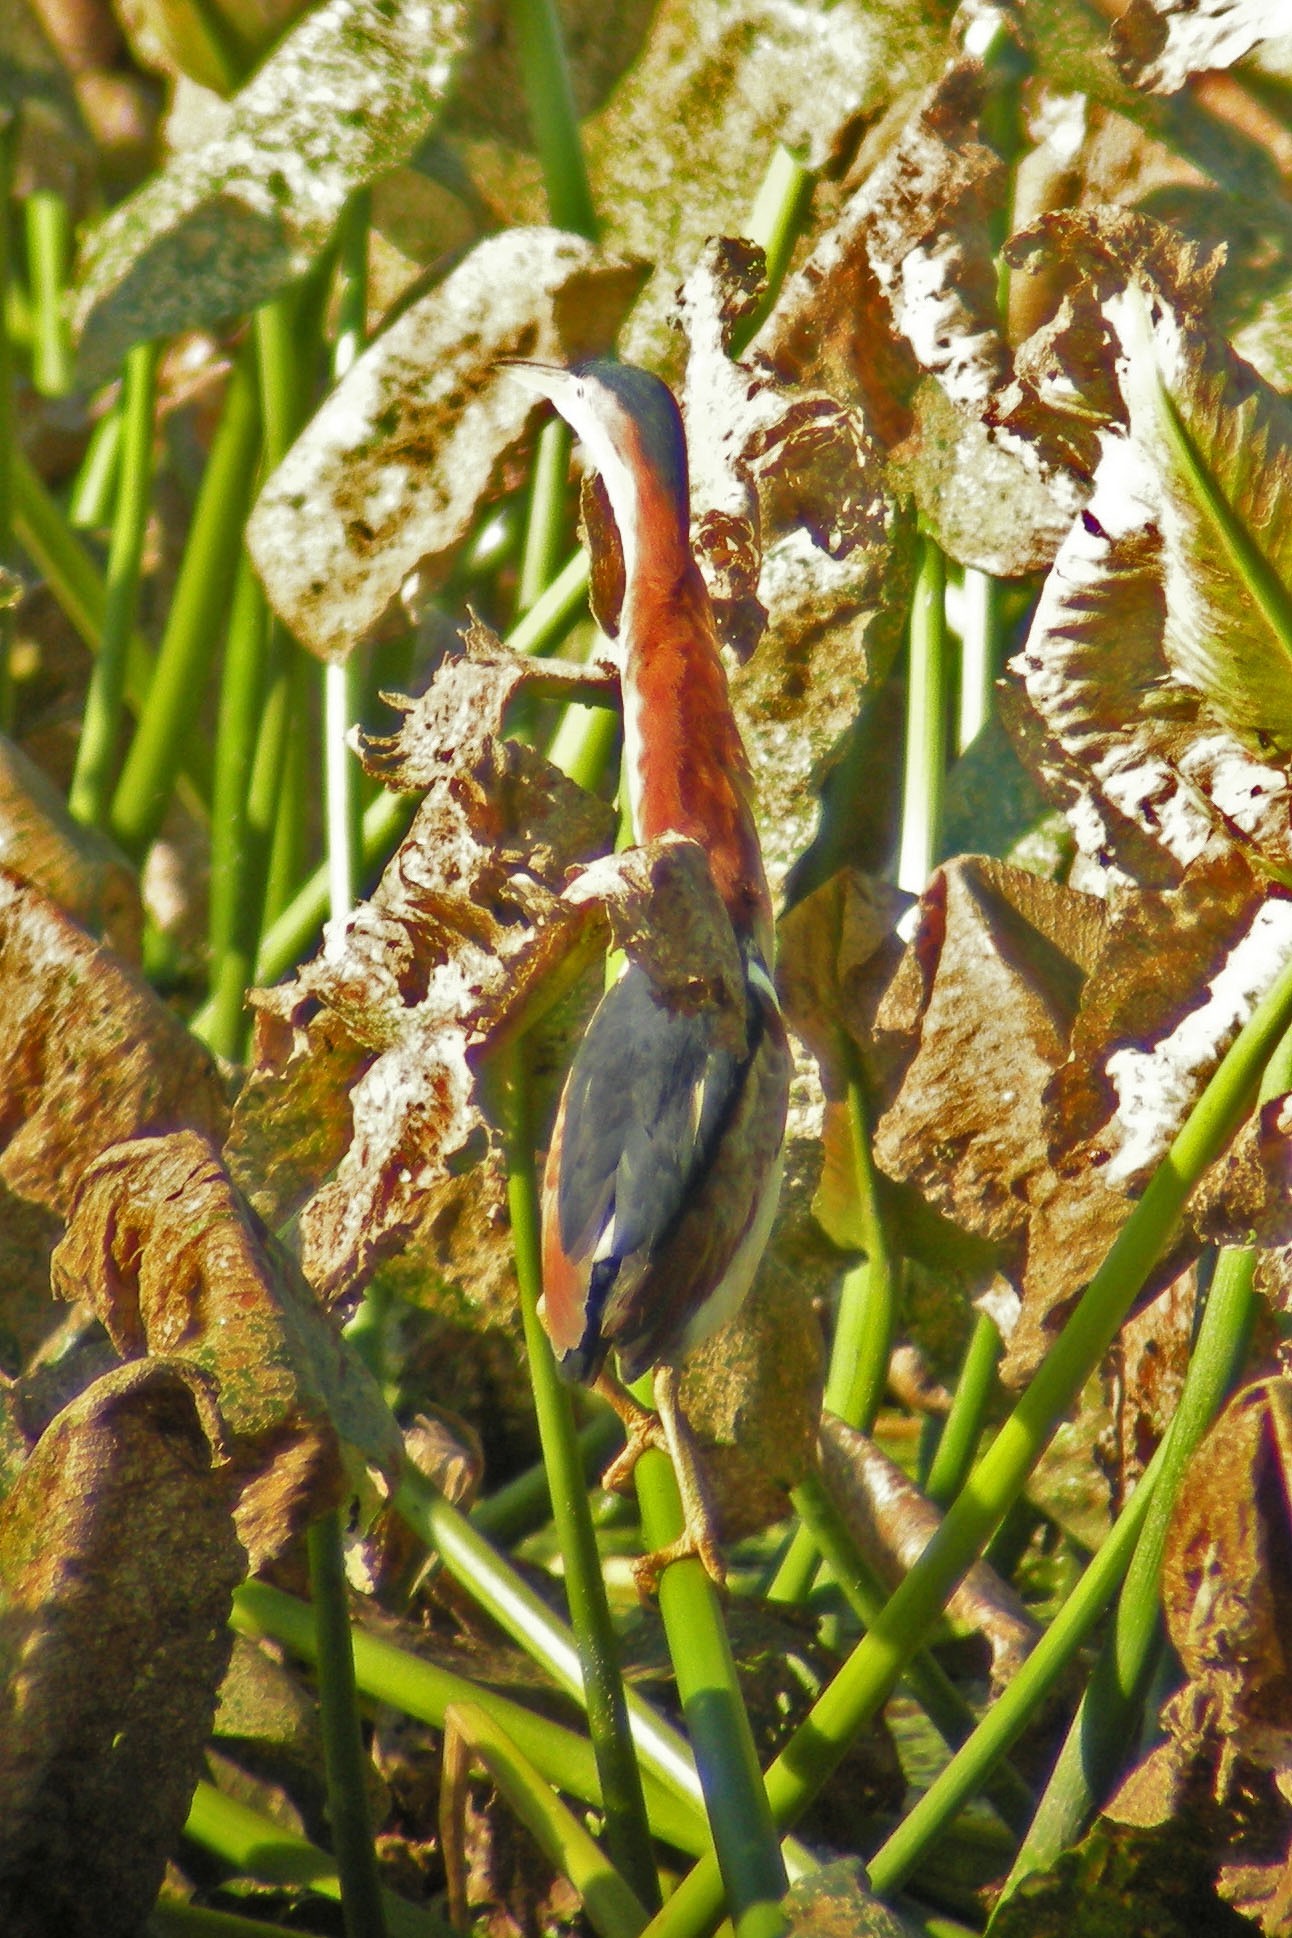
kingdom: Animalia
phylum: Chordata
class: Aves
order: Pelecaniformes
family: Ardeidae
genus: Ixobrychus
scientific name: Ixobrychus exilis
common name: Least bittern
